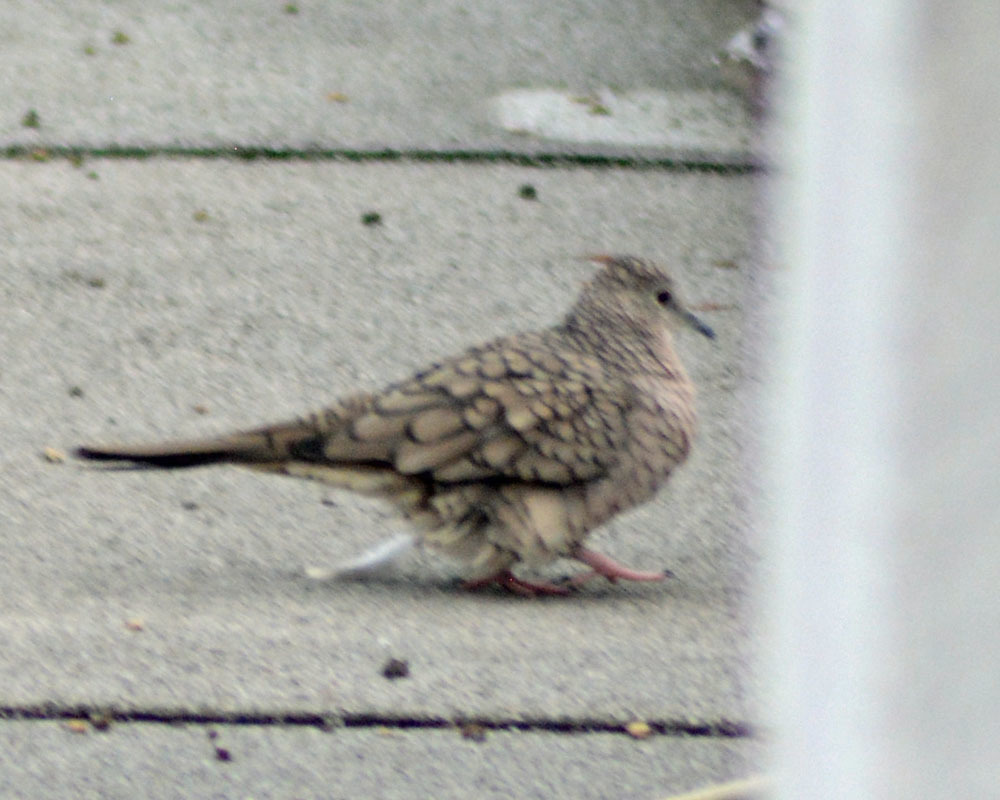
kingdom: Animalia
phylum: Chordata
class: Aves
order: Columbiformes
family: Columbidae
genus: Columbina
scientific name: Columbina inca
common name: Inca dove
